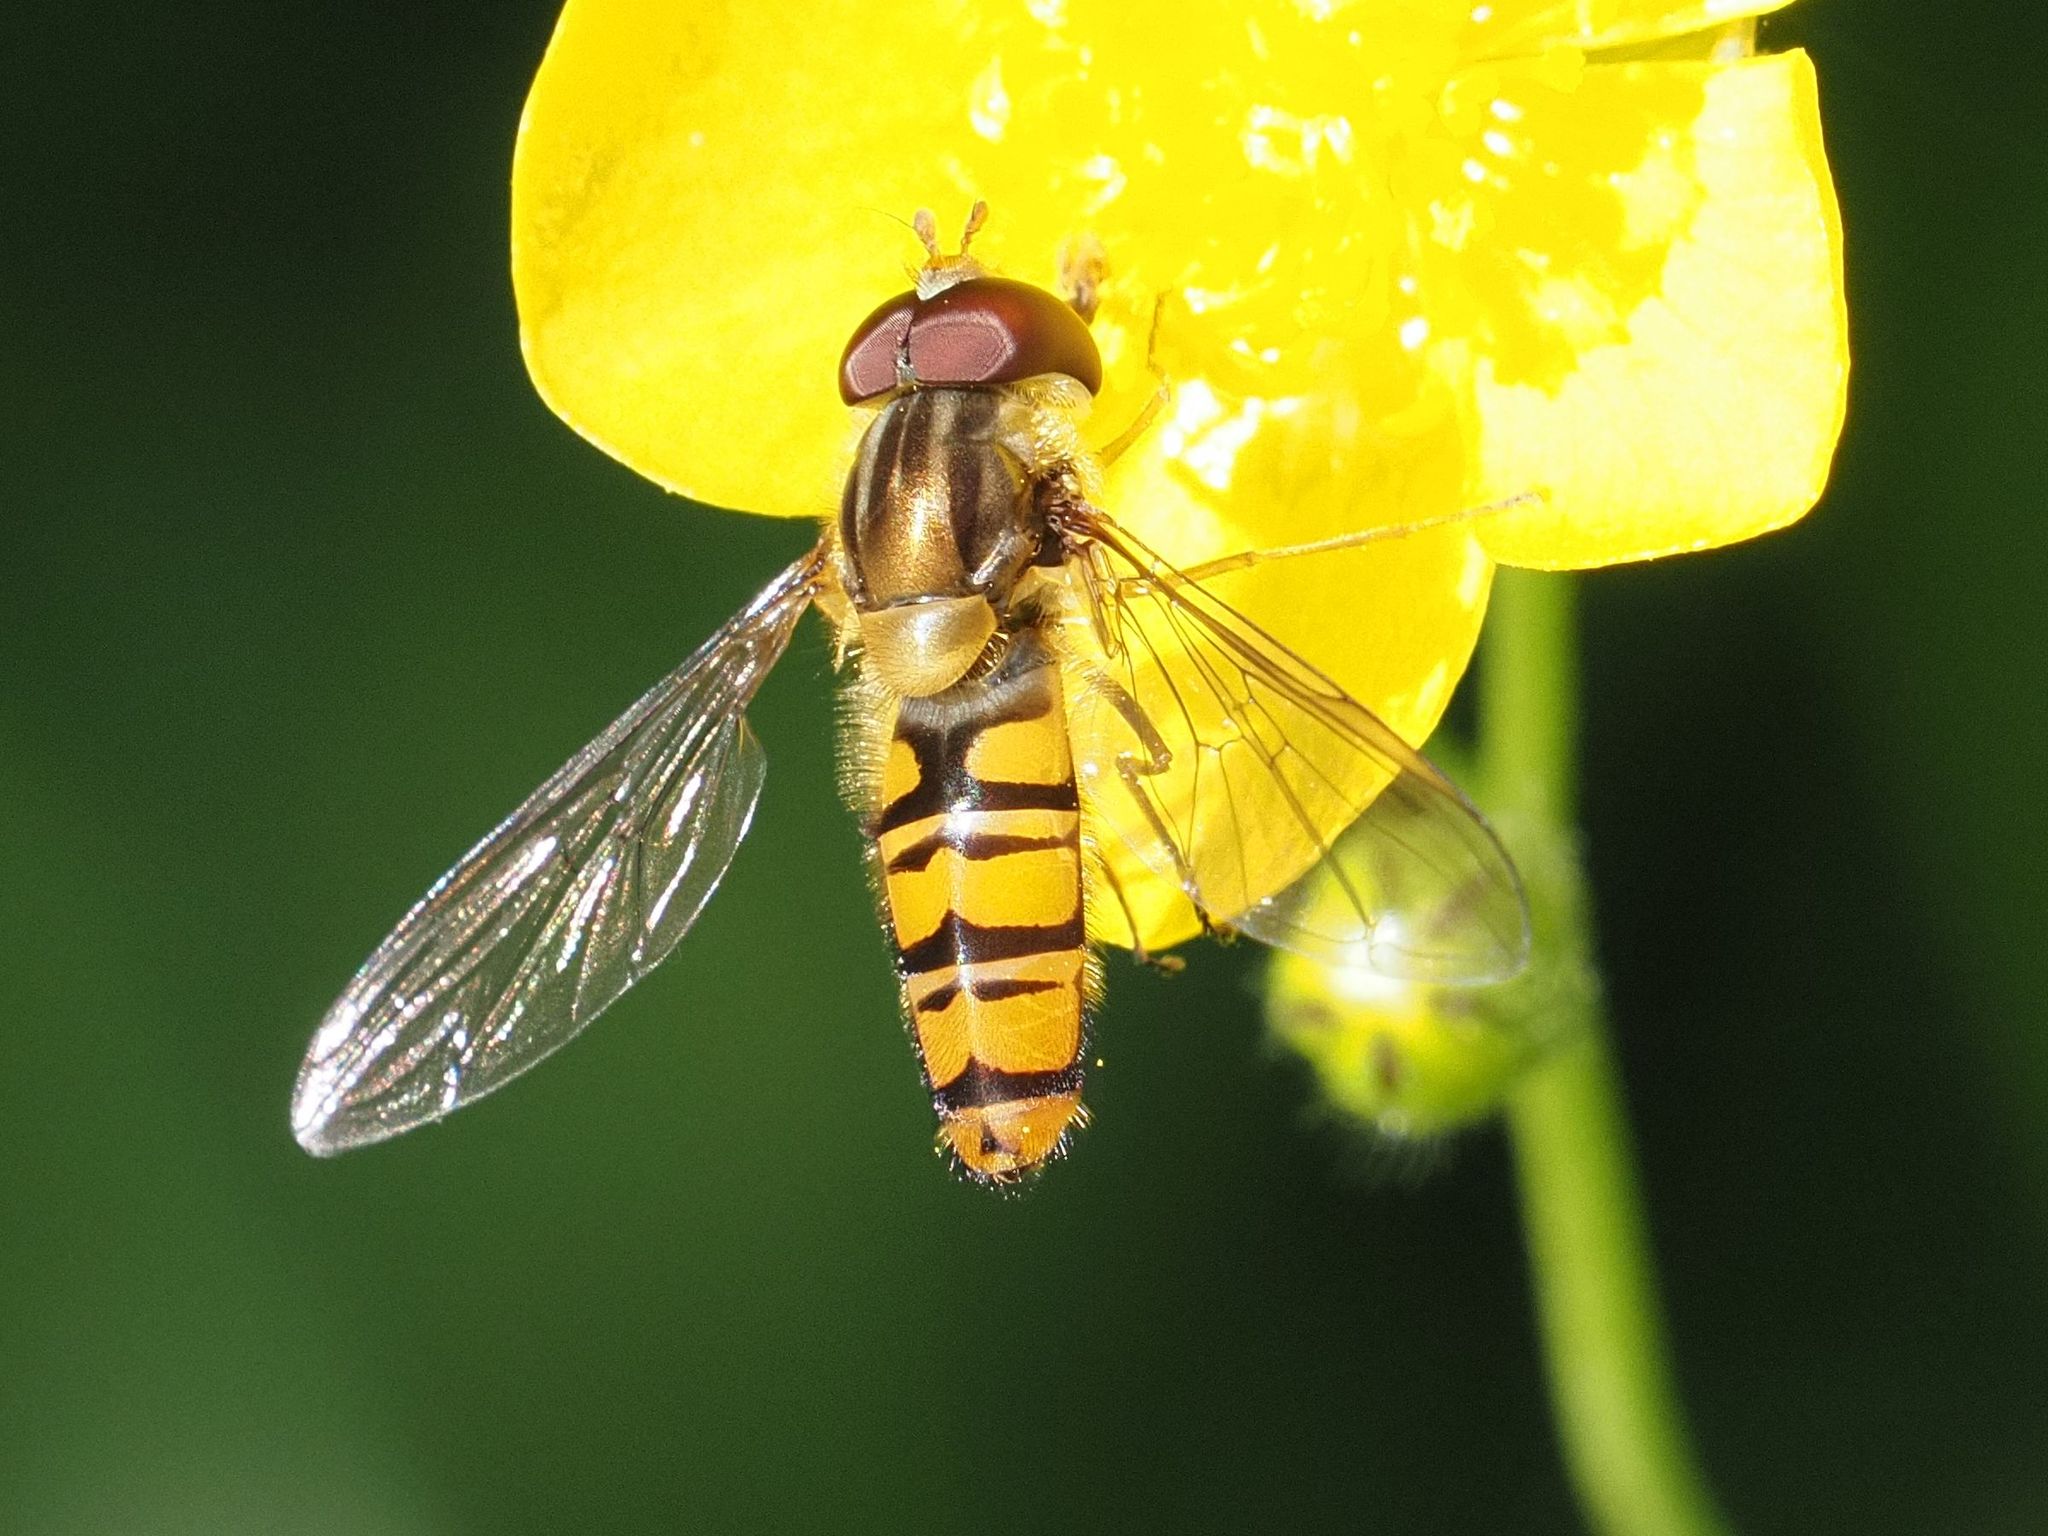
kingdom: Animalia
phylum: Arthropoda
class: Insecta
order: Diptera
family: Syrphidae
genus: Episyrphus
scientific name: Episyrphus balteatus
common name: Marmalade hoverfly
